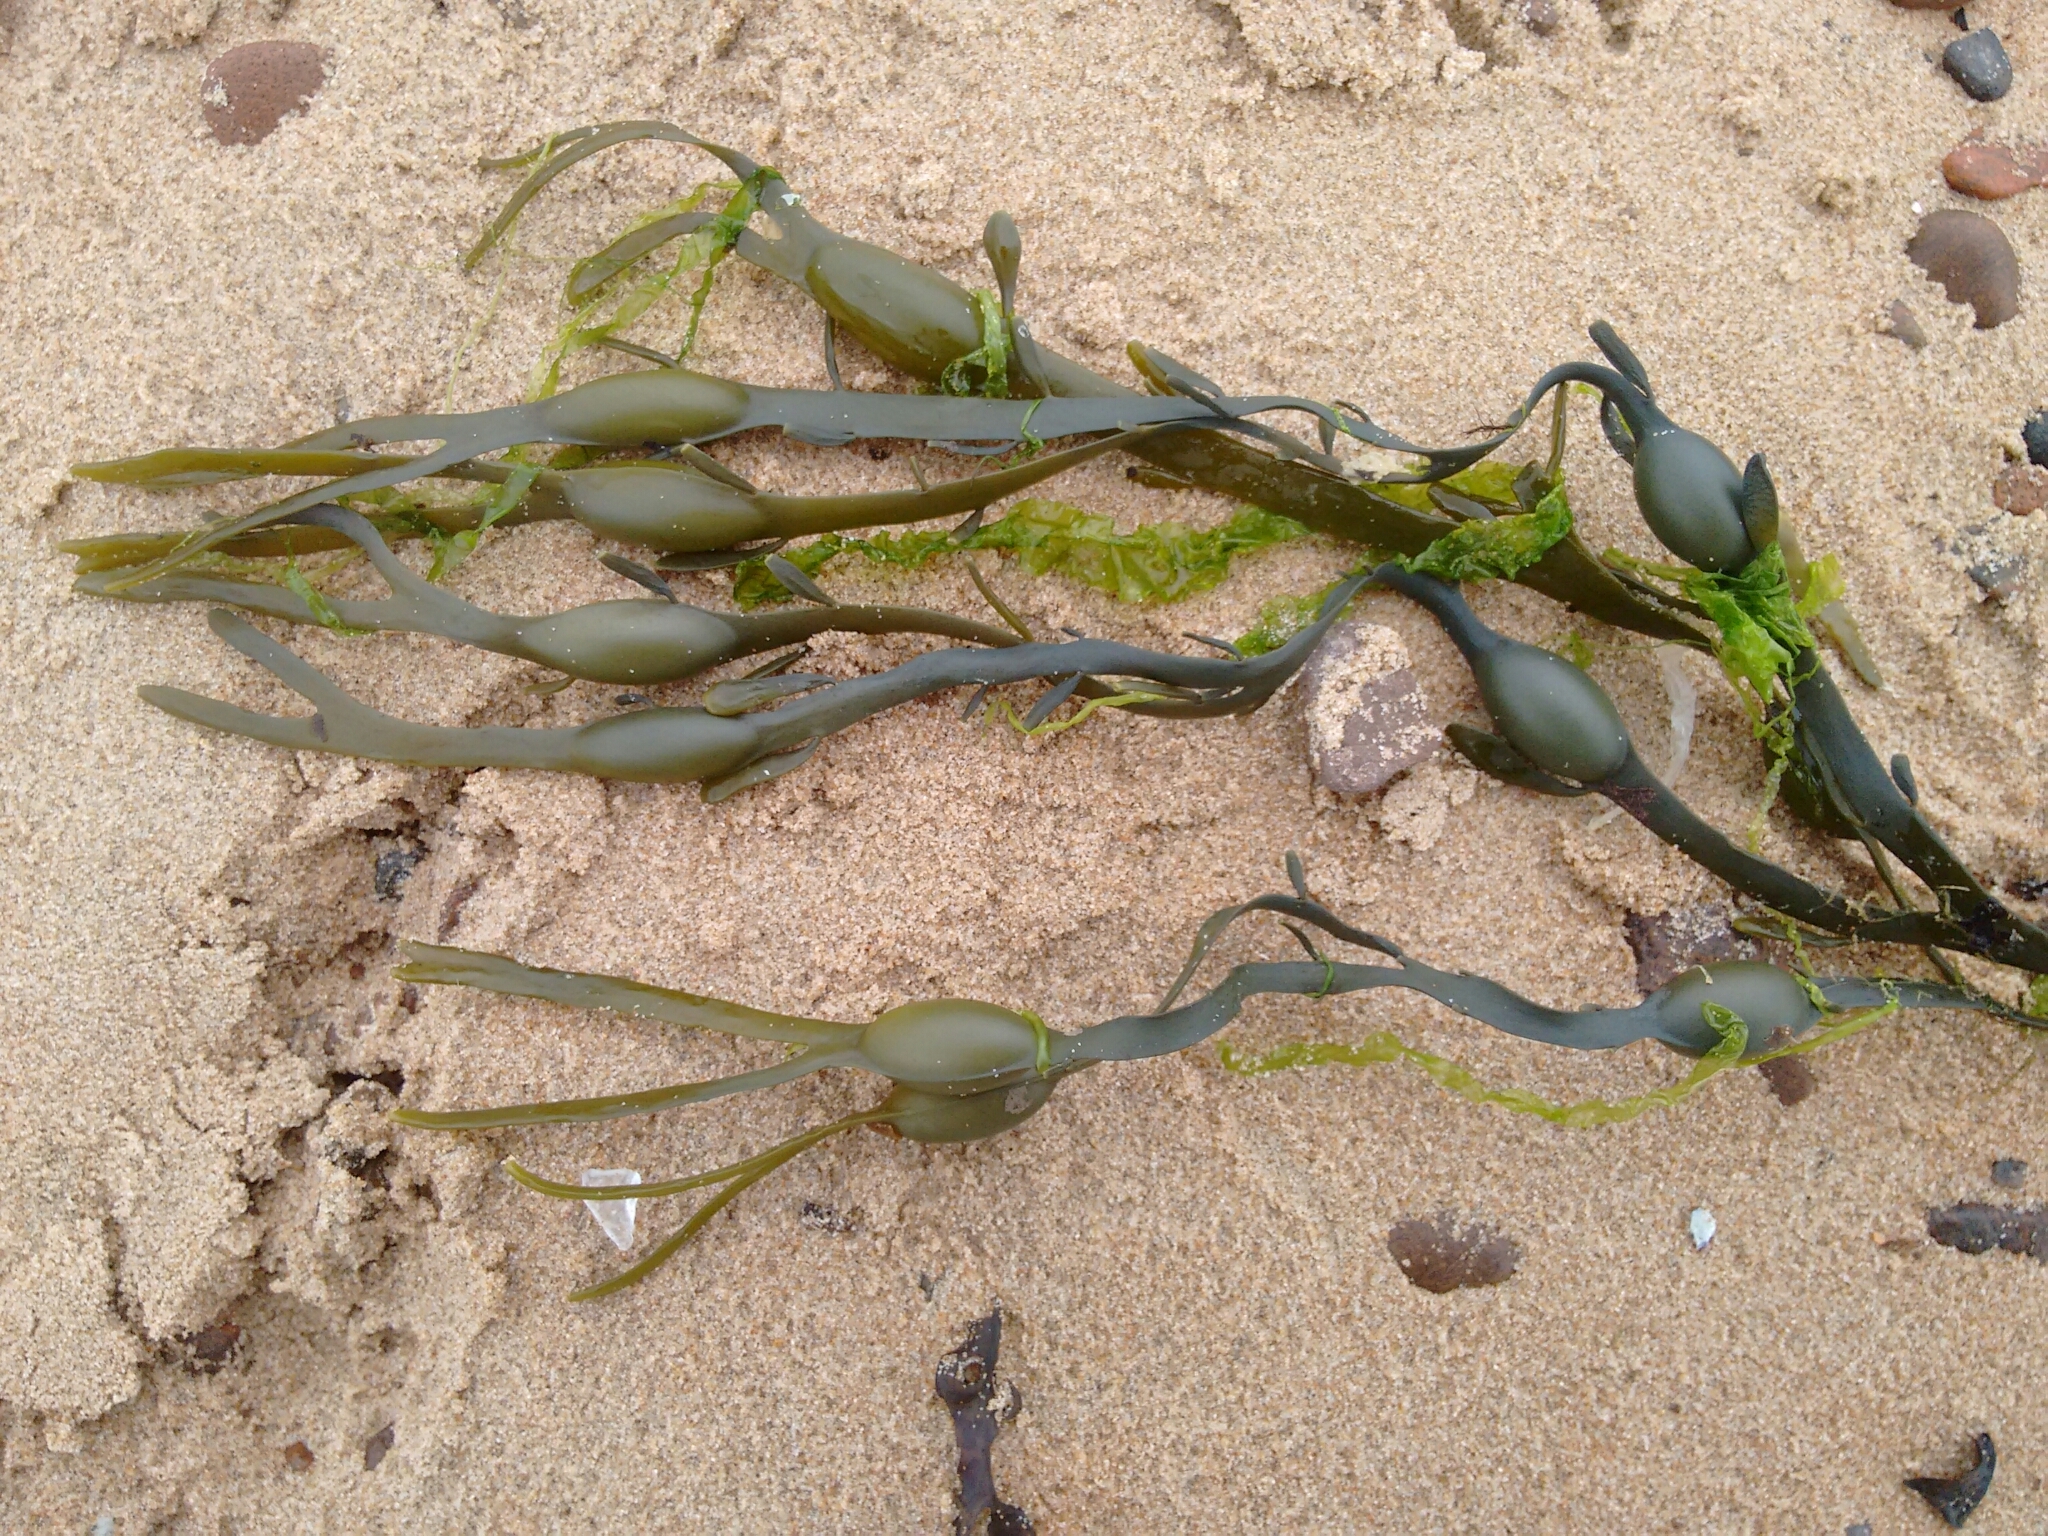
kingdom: Chromista
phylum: Ochrophyta
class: Phaeophyceae
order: Fucales
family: Fucaceae
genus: Ascophyllum
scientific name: Ascophyllum nodosum
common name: Knotted wrack
